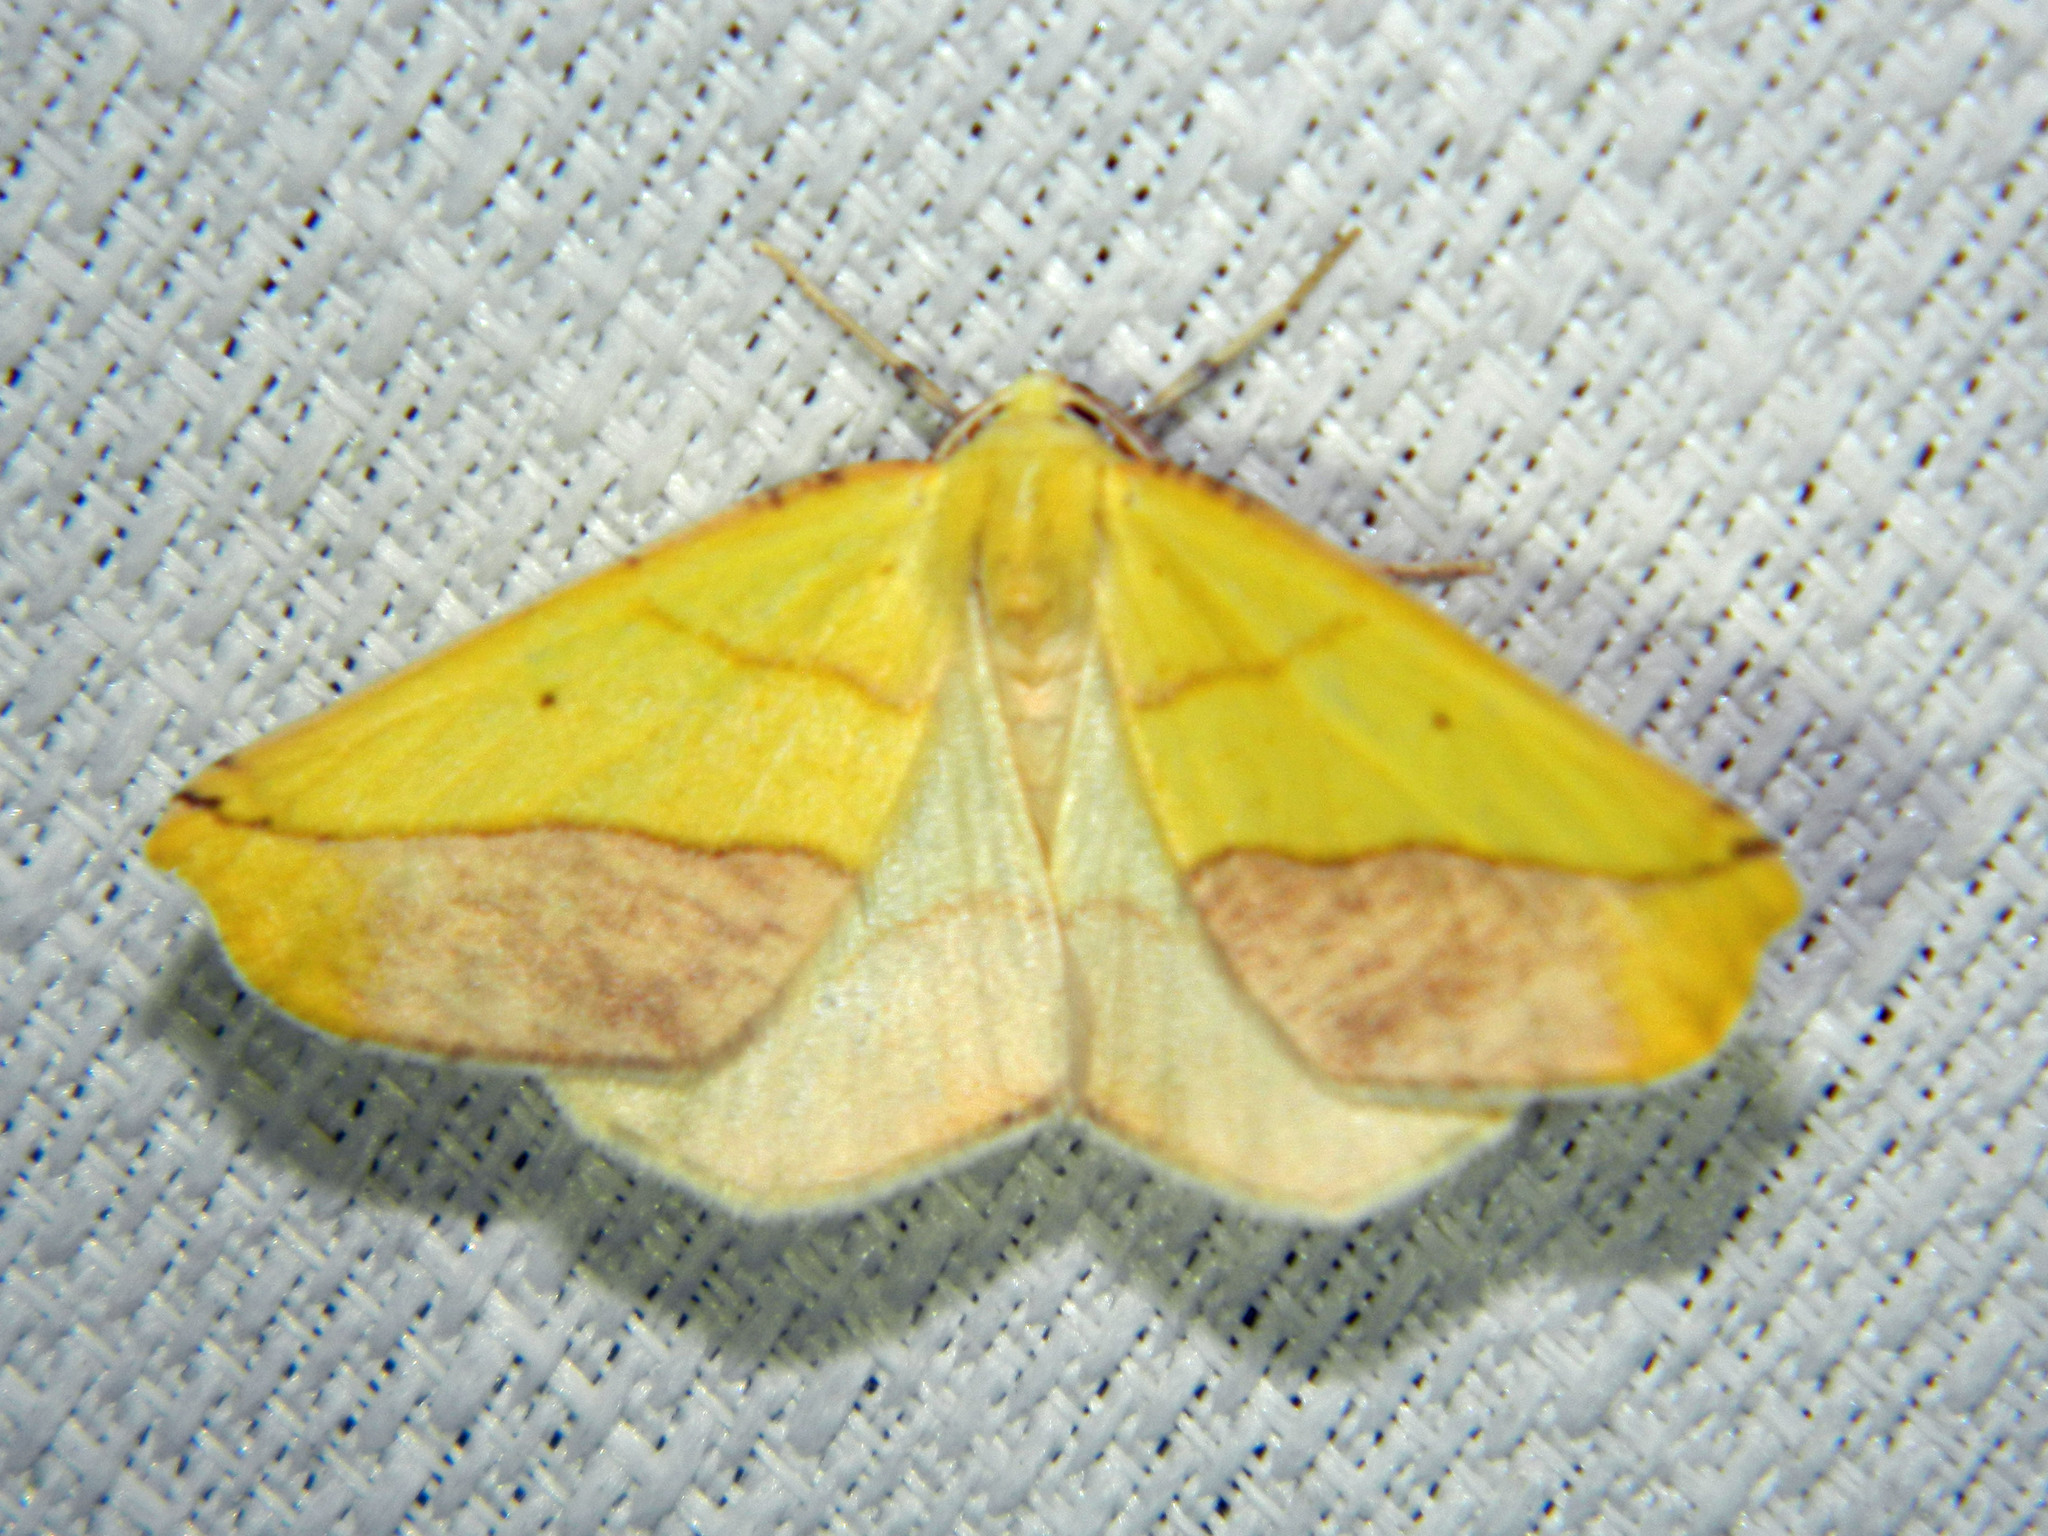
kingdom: Animalia
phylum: Arthropoda
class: Insecta
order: Lepidoptera
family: Geometridae
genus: Sicya
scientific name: Sicya macularia
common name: Sharp-lined yellow
